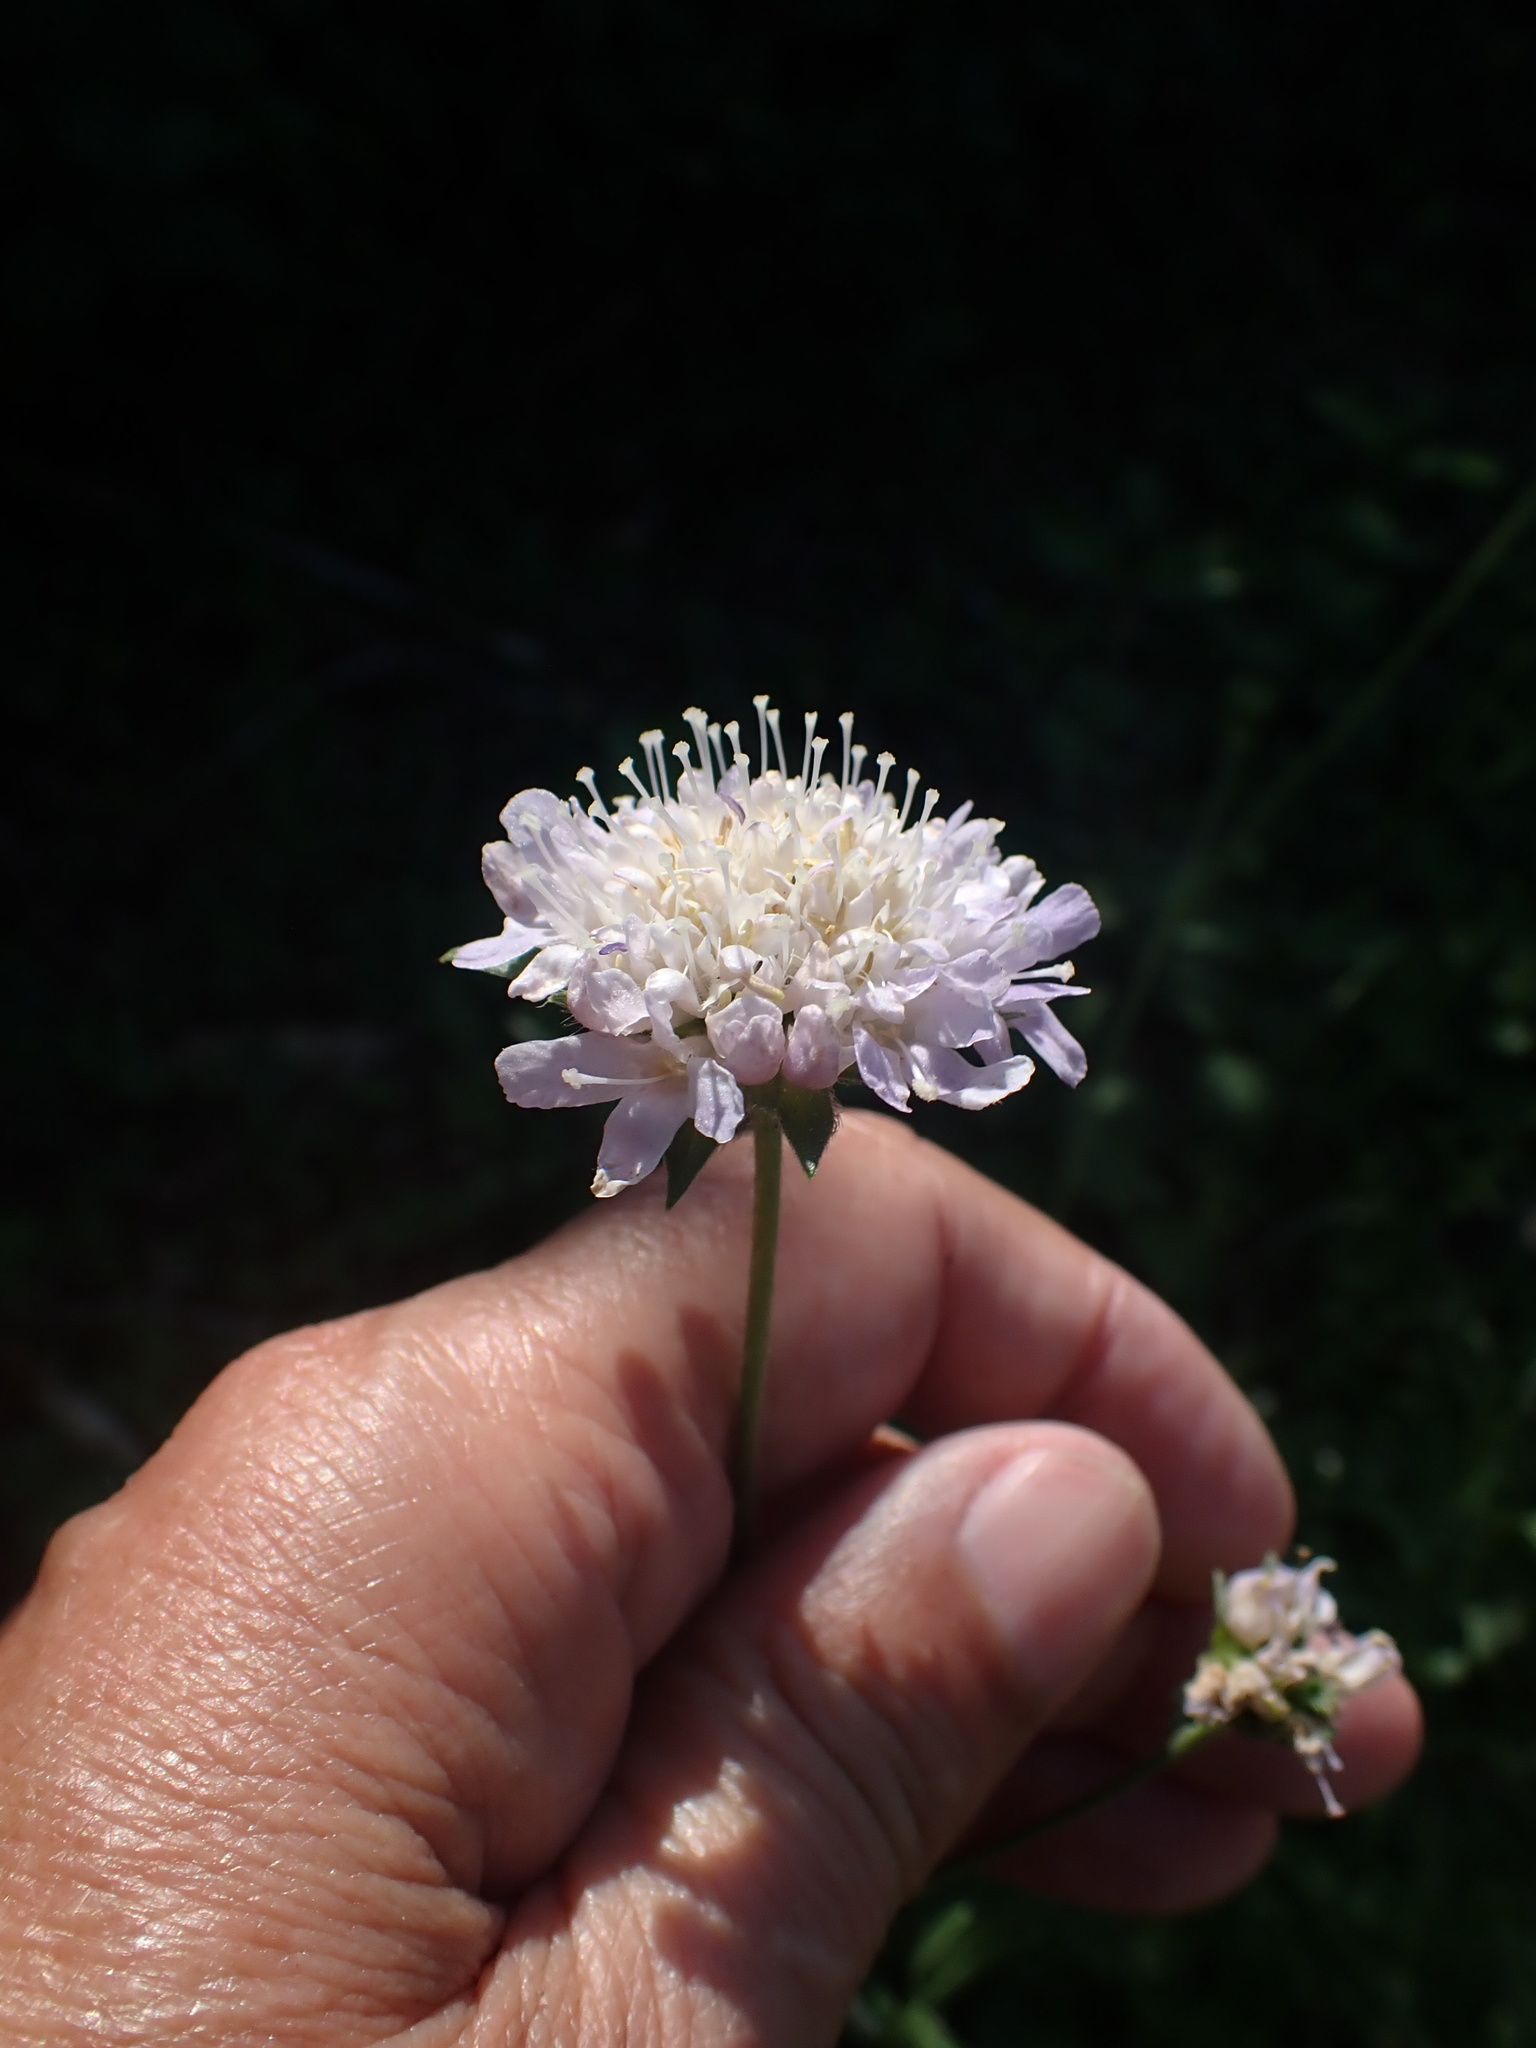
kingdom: Plantae
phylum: Tracheophyta
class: Magnoliopsida
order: Dipsacales
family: Caprifoliaceae
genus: Knautia
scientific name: Knautia arvensis
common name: Field scabiosa
